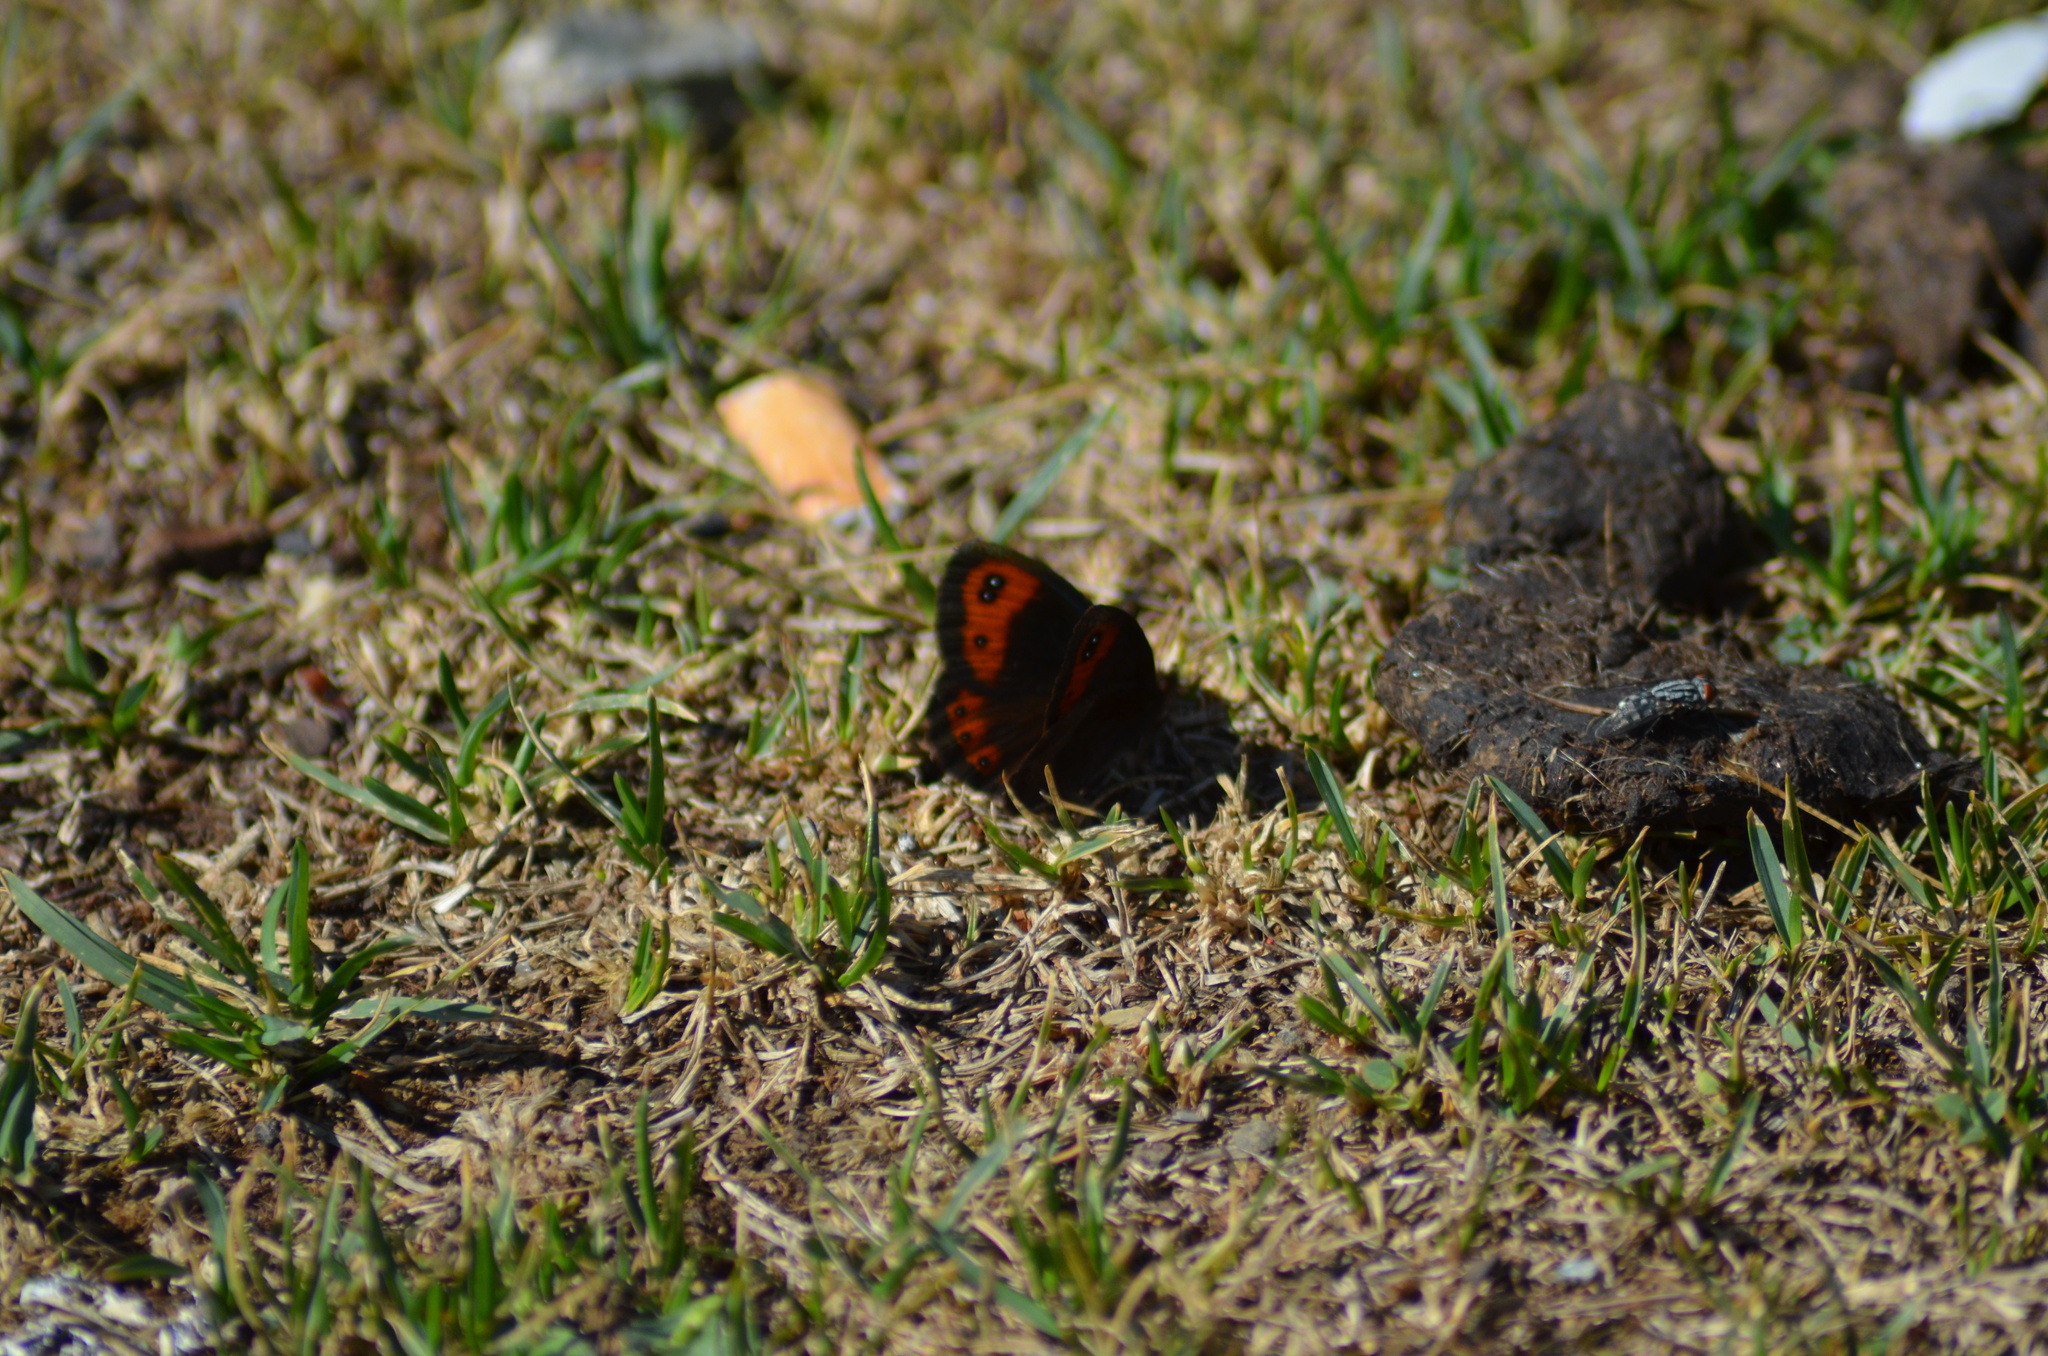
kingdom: Animalia
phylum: Arthropoda
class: Insecta
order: Lepidoptera
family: Nymphalidae
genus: Erebia
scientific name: Erebia neoridas
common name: Autumn ringlet
